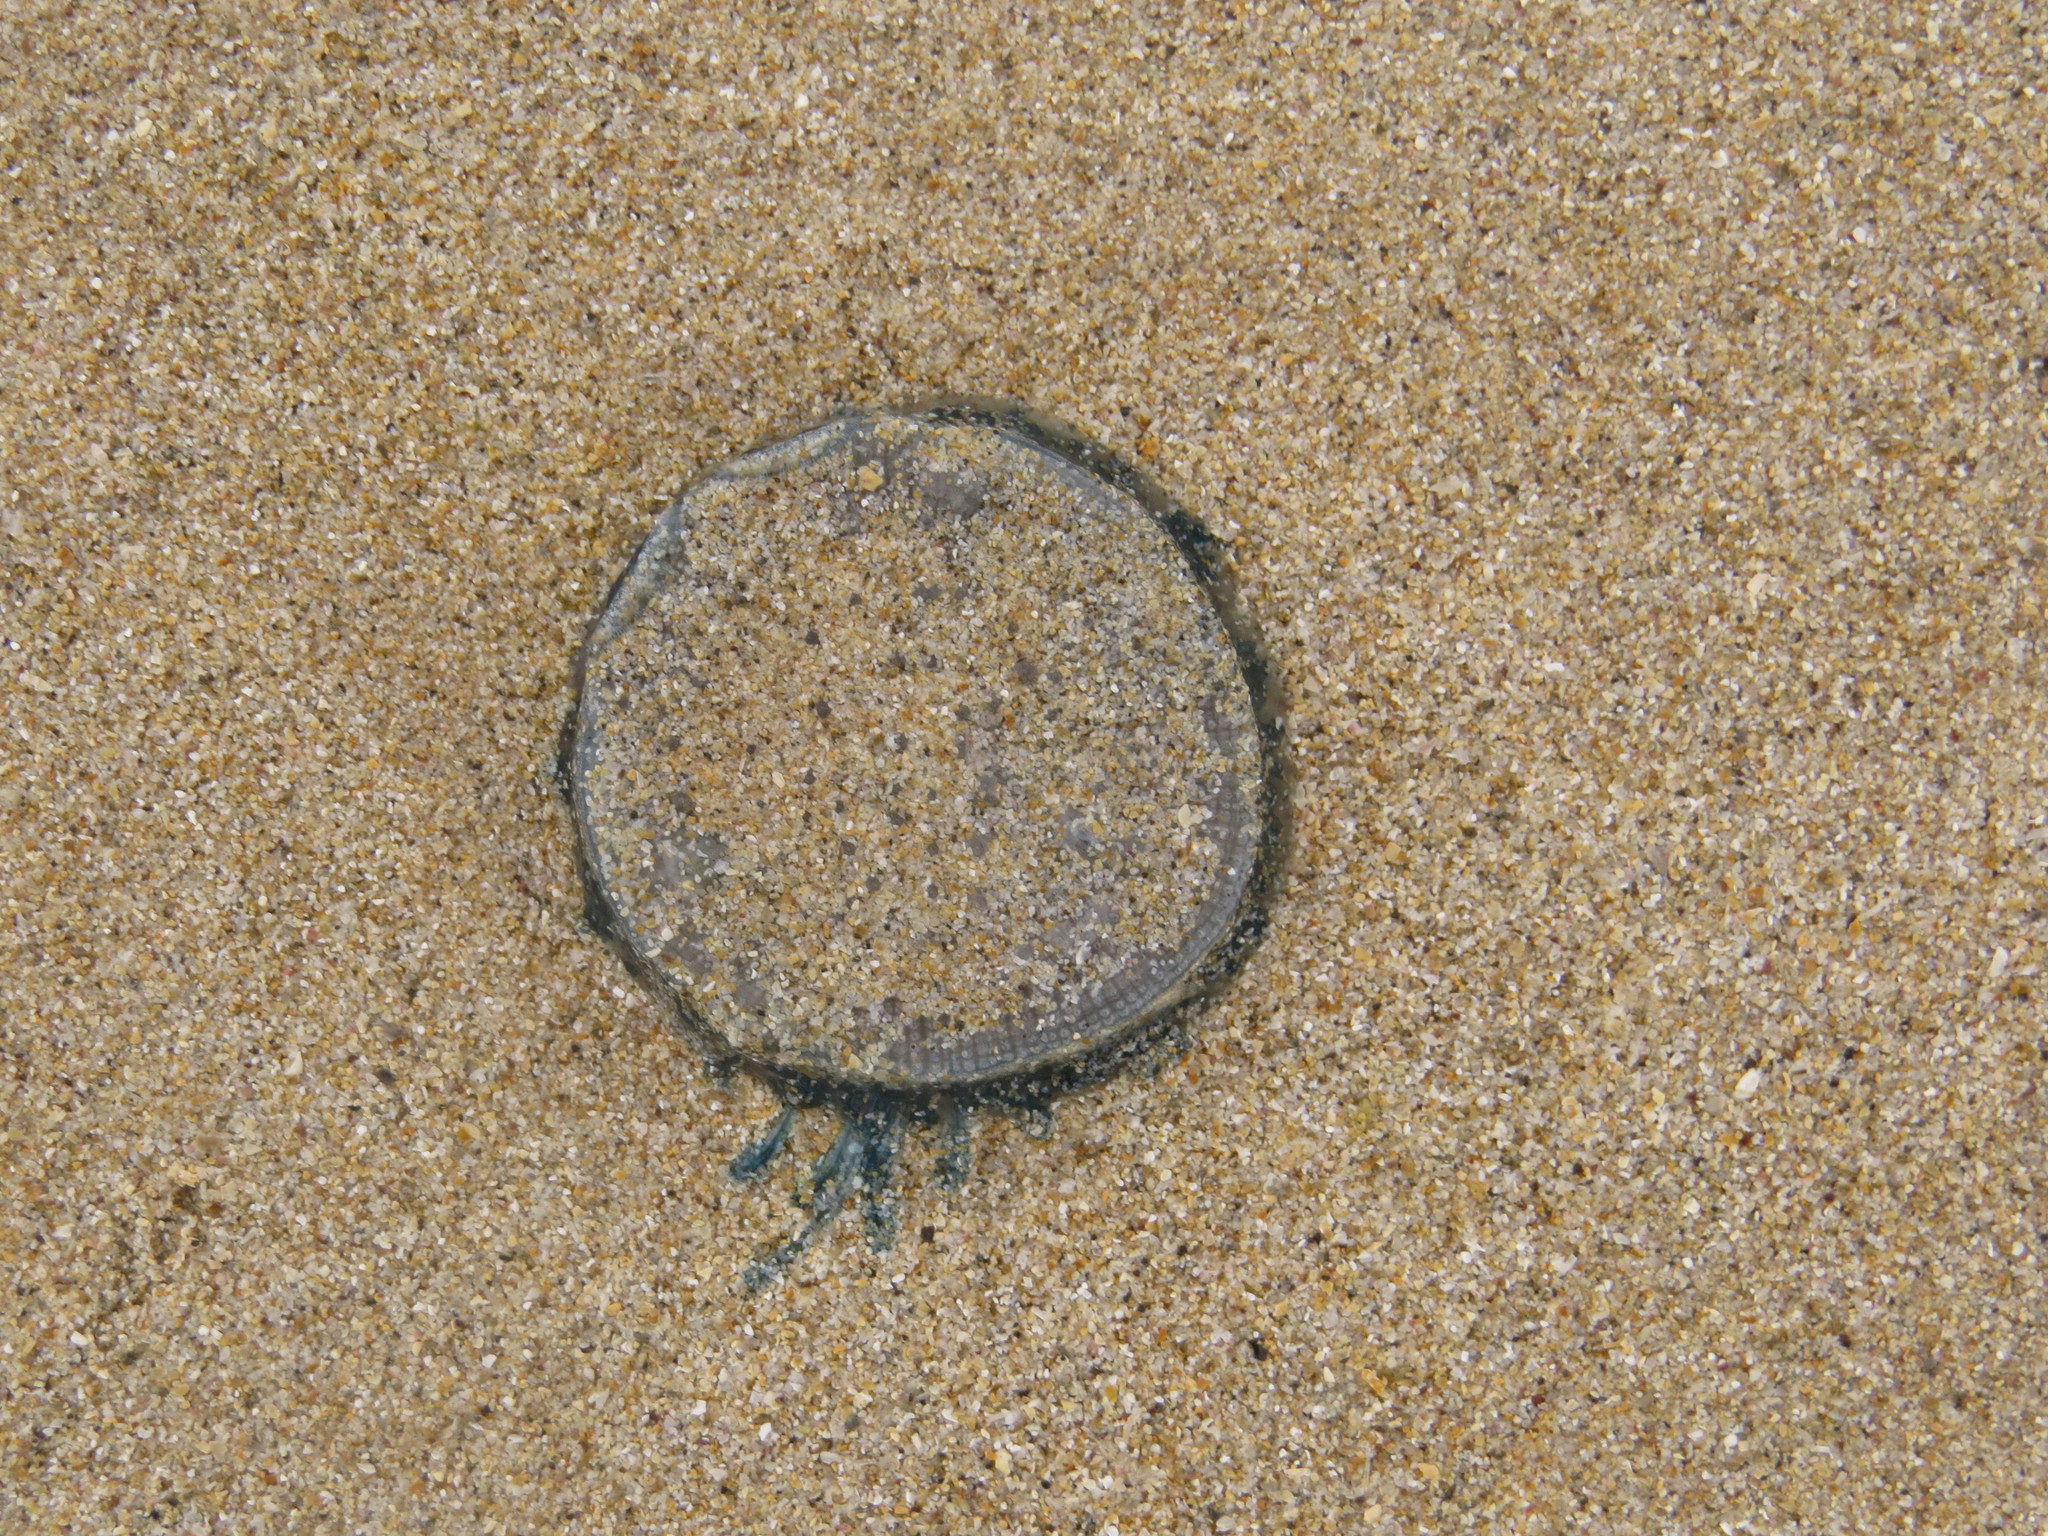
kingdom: Animalia
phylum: Cnidaria
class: Hydrozoa
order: Anthoathecata
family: Porpitidae
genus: Porpita
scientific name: Porpita porpita
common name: Blue button
